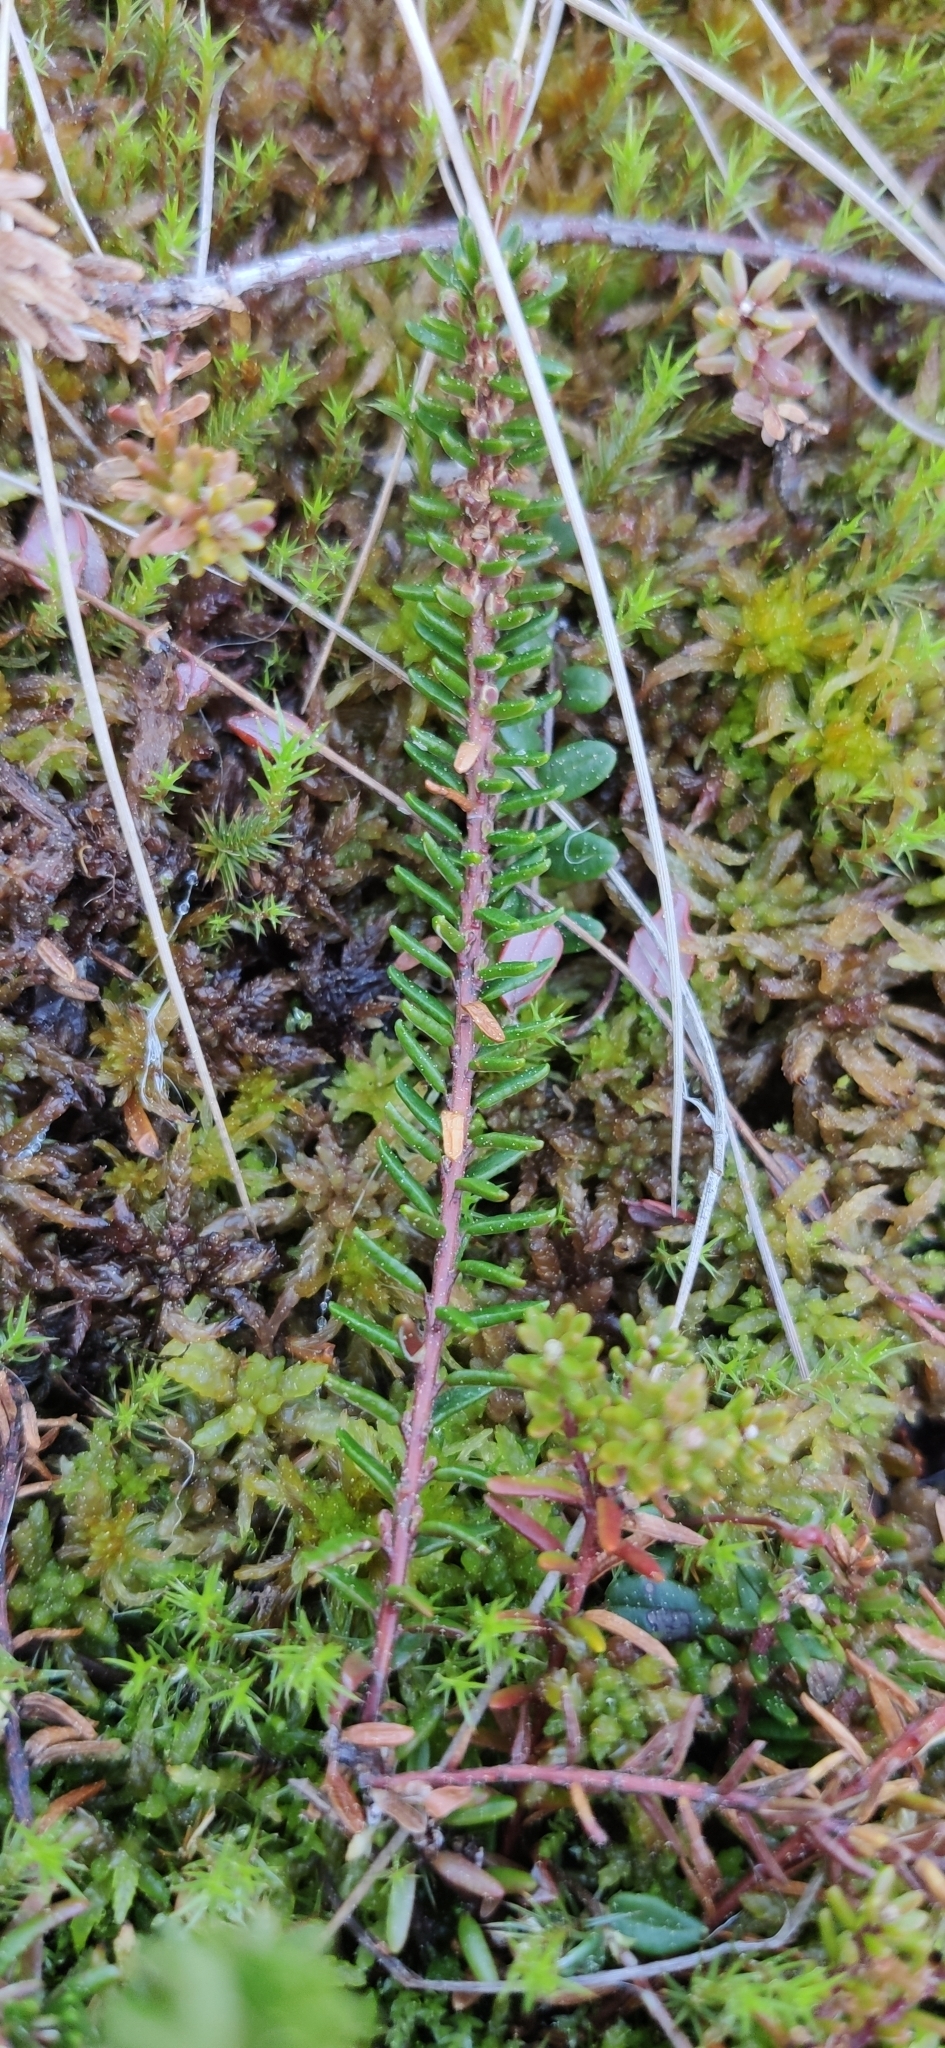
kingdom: Plantae
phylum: Tracheophyta
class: Magnoliopsida
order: Ericales
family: Ericaceae
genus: Empetrum
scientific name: Empetrum nigrum
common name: Black crowberry
